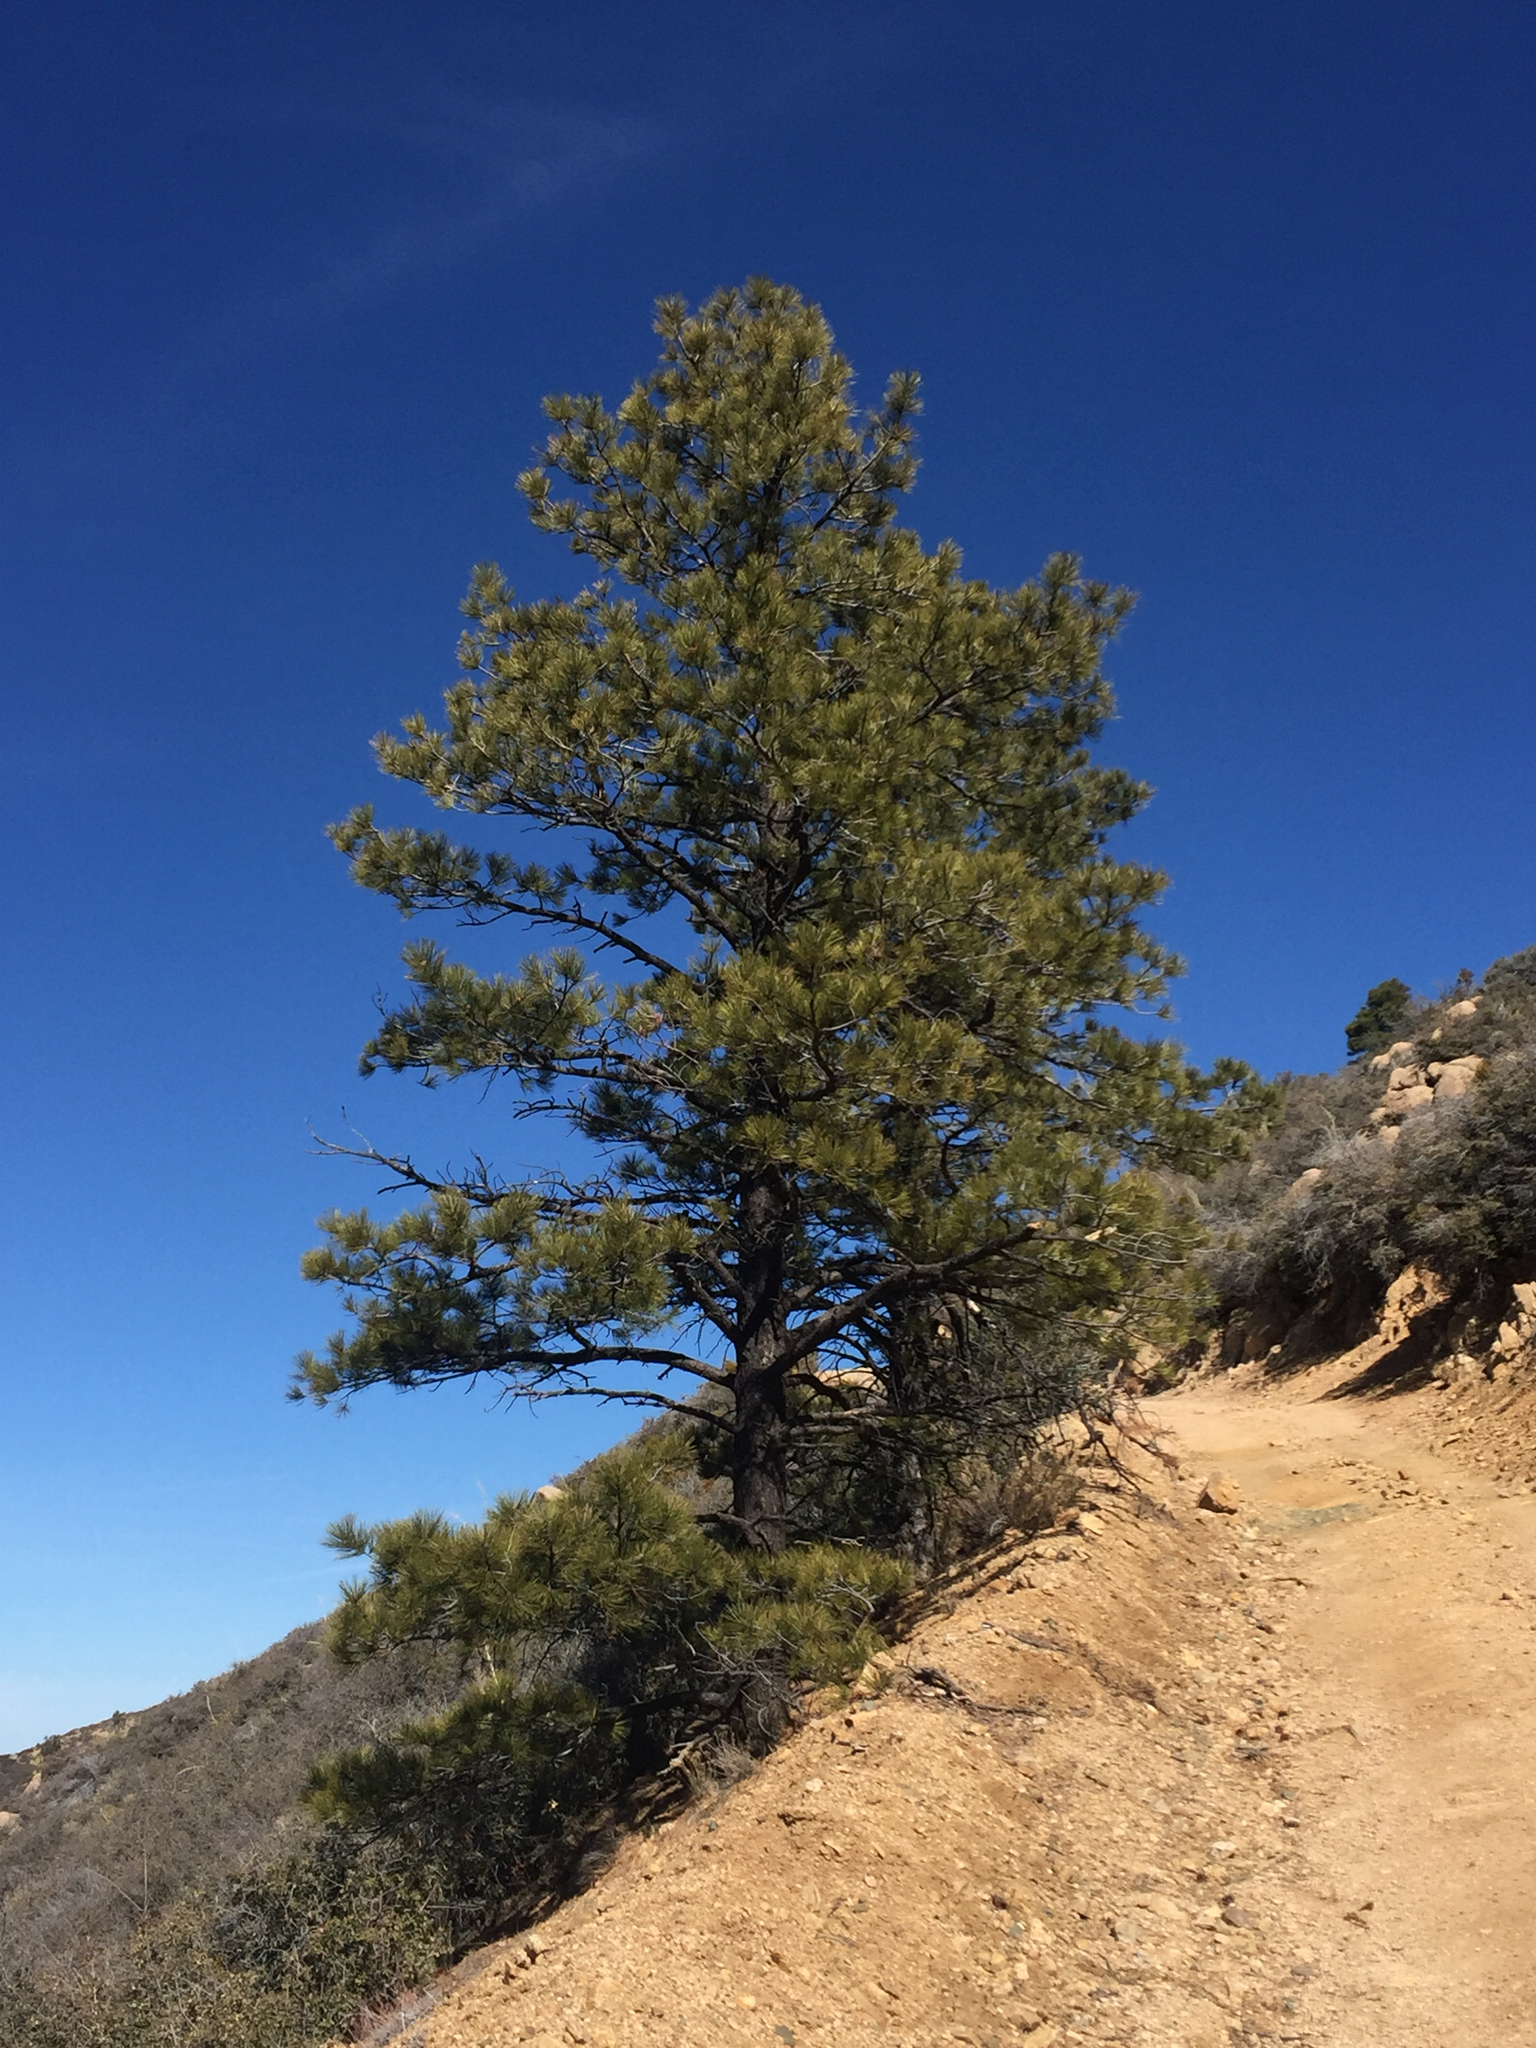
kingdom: Plantae
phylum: Tracheophyta
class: Pinopsida
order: Pinales
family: Pinaceae
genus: Pinus
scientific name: Pinus ponderosa
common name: Western yellow-pine
